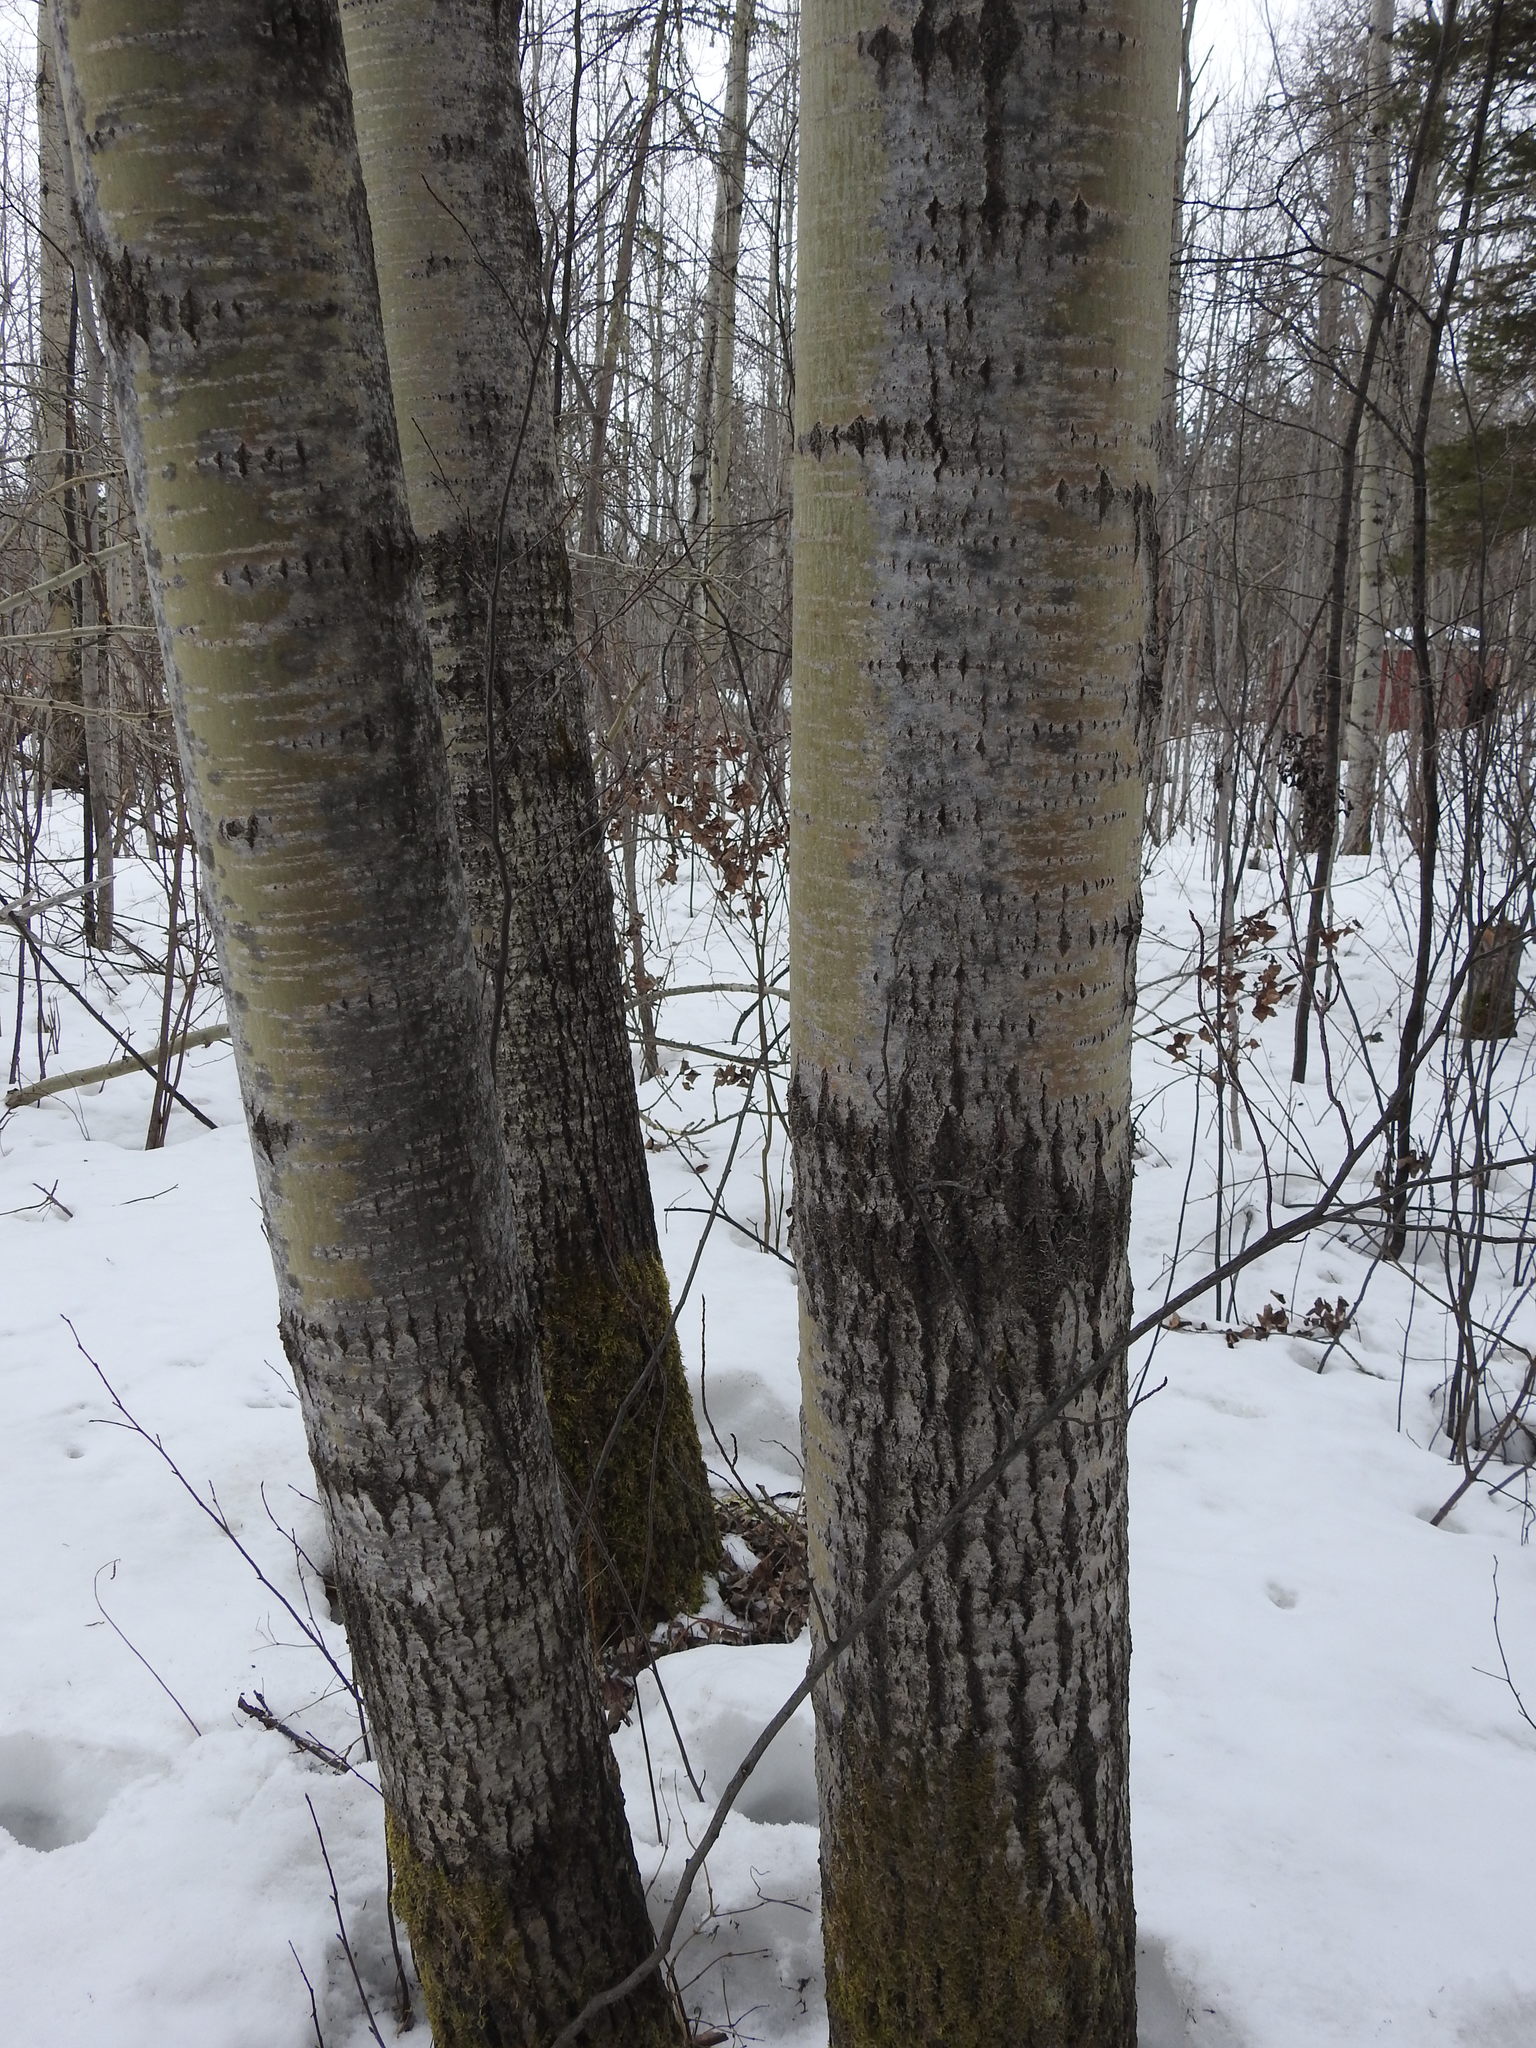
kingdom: Plantae
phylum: Tracheophyta
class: Magnoliopsida
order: Malpighiales
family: Salicaceae
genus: Populus
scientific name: Populus tremuloides
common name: Quaking aspen
